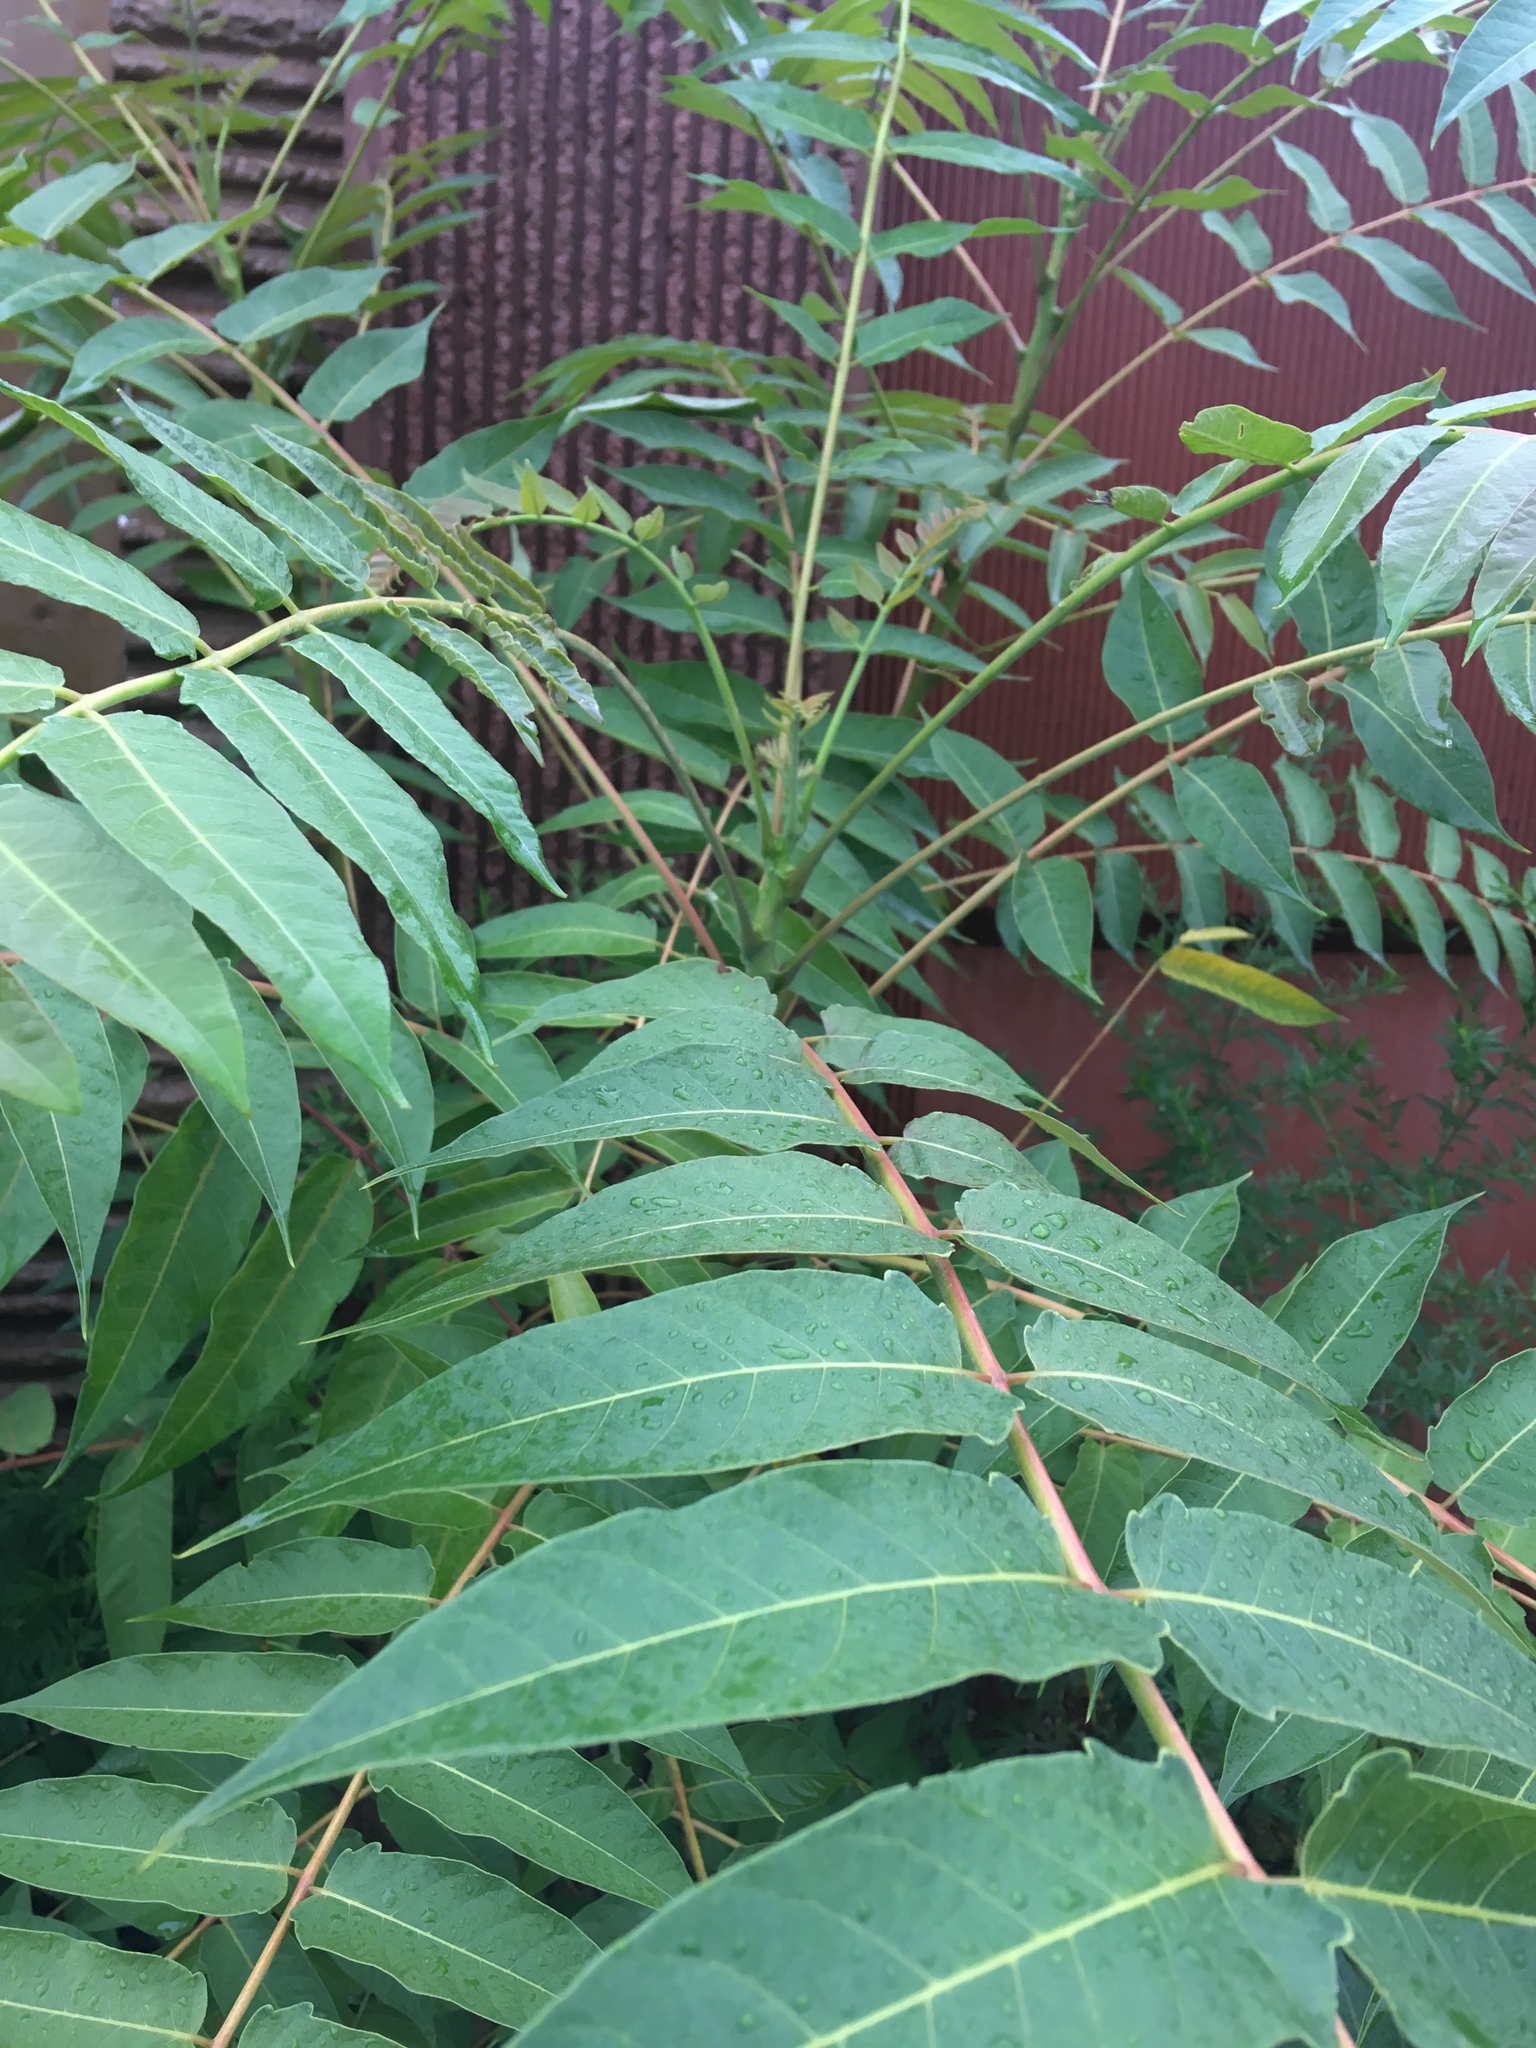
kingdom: Plantae
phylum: Tracheophyta
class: Magnoliopsida
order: Sapindales
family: Simaroubaceae
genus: Ailanthus
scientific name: Ailanthus altissima
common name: Tree-of-heaven
